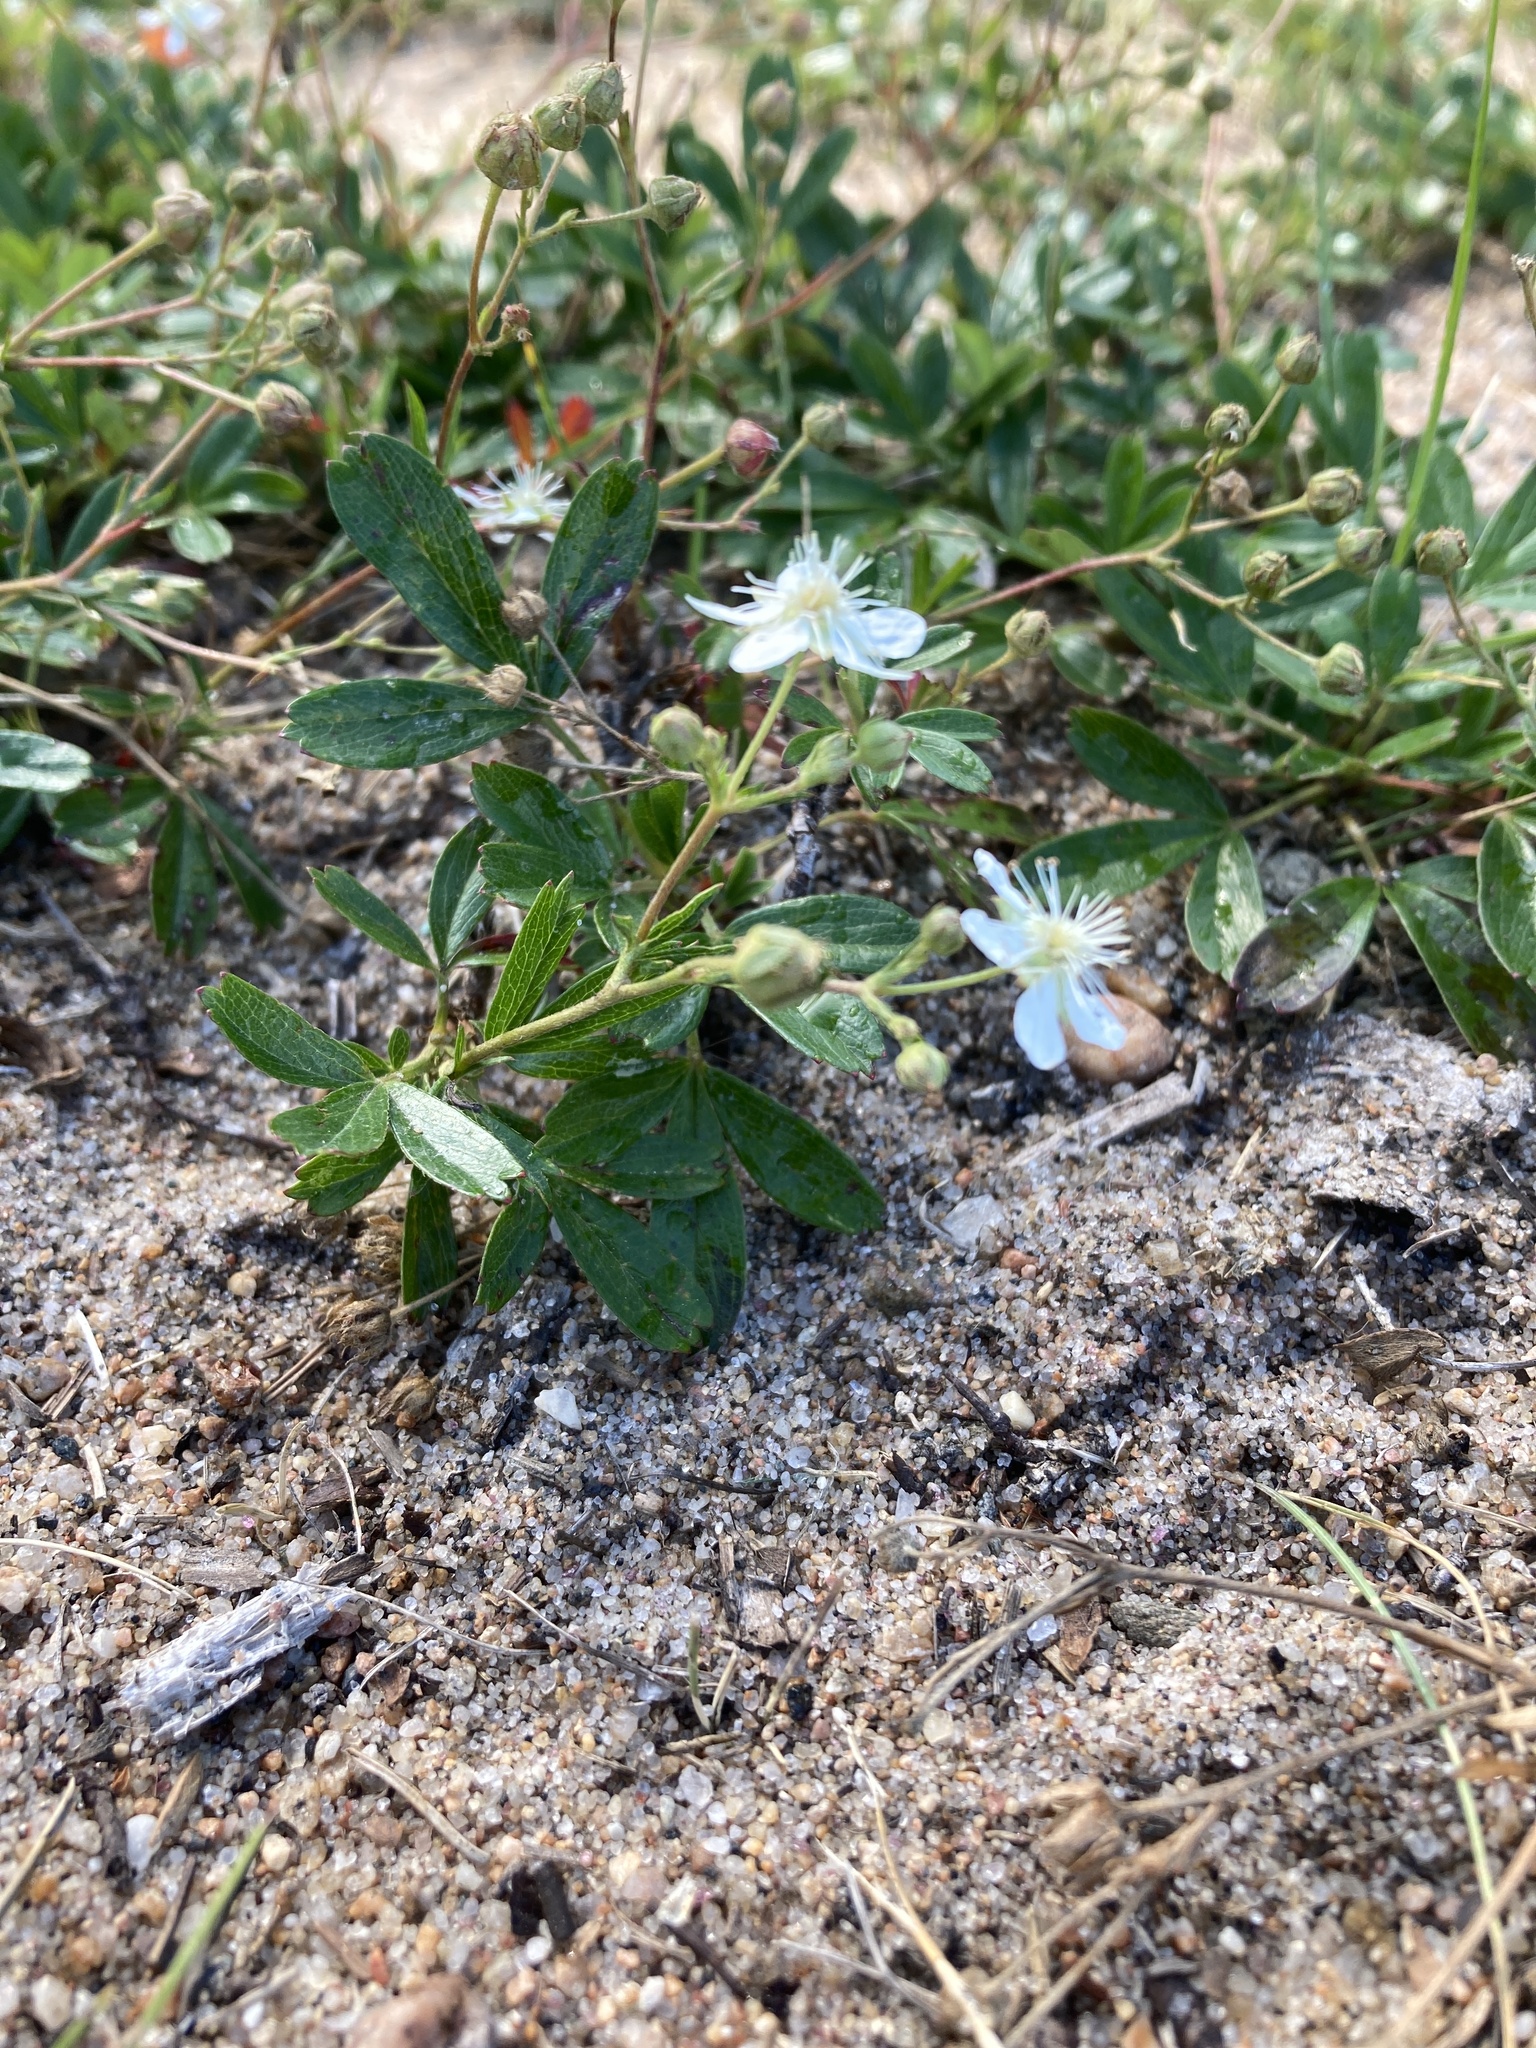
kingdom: Plantae
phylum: Tracheophyta
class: Magnoliopsida
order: Rosales
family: Rosaceae
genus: Sibbaldia
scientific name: Sibbaldia tridentata
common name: Three-toothed cinquefoil
